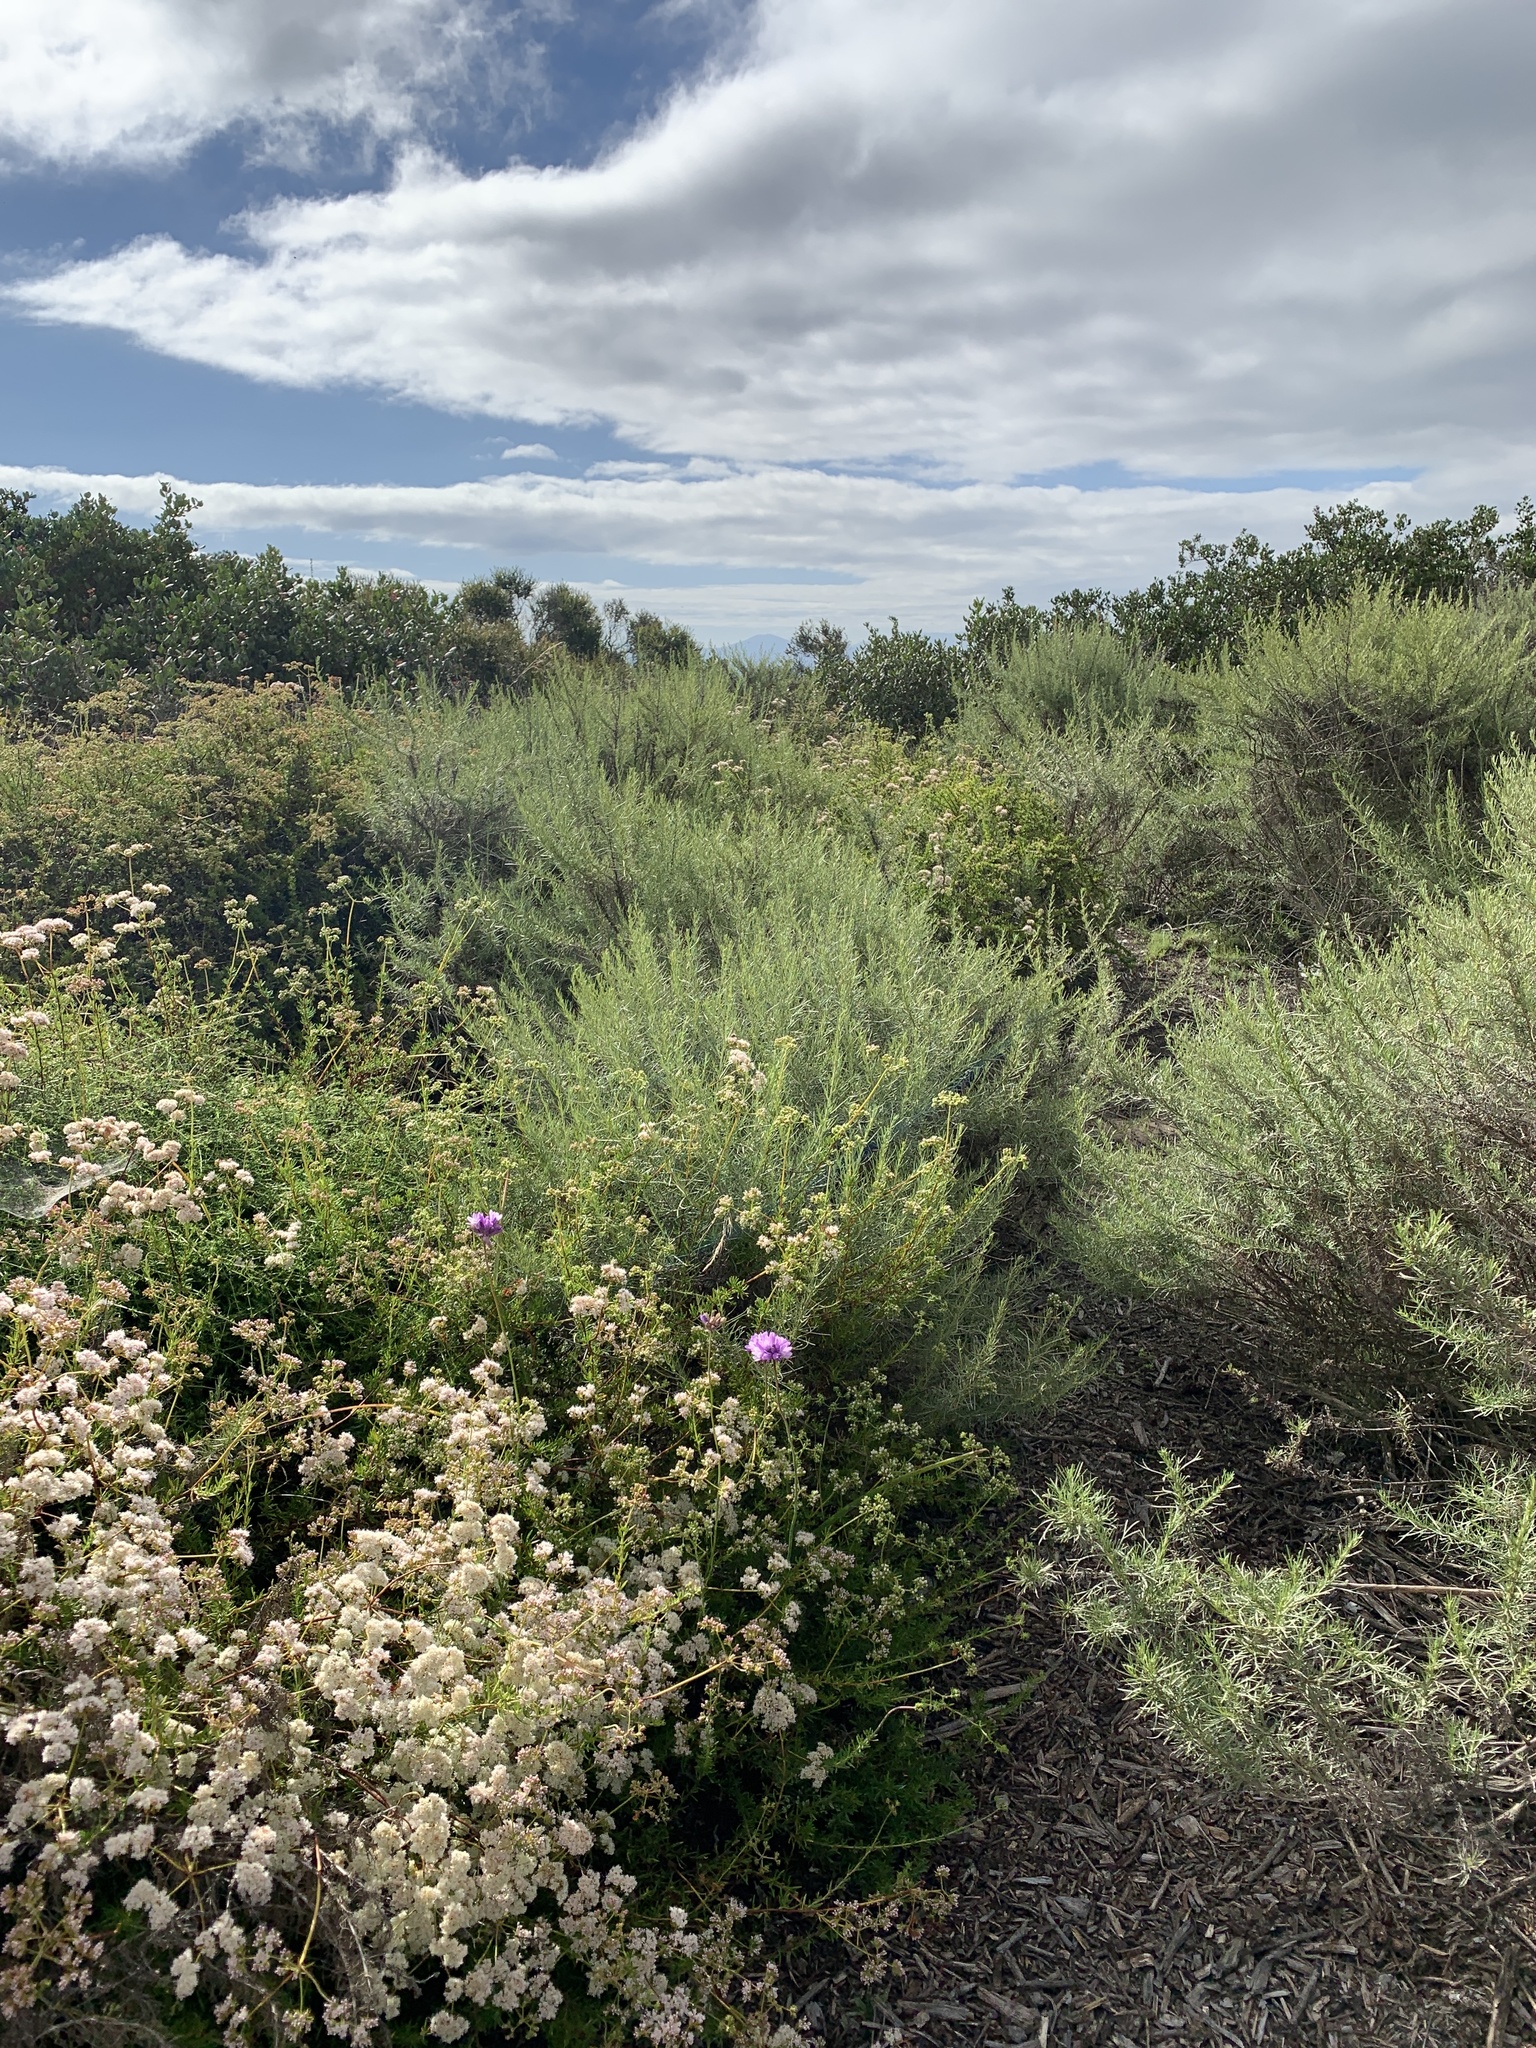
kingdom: Plantae
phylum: Tracheophyta
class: Liliopsida
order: Asparagales
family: Asparagaceae
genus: Dipterostemon
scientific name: Dipterostemon capitatus
